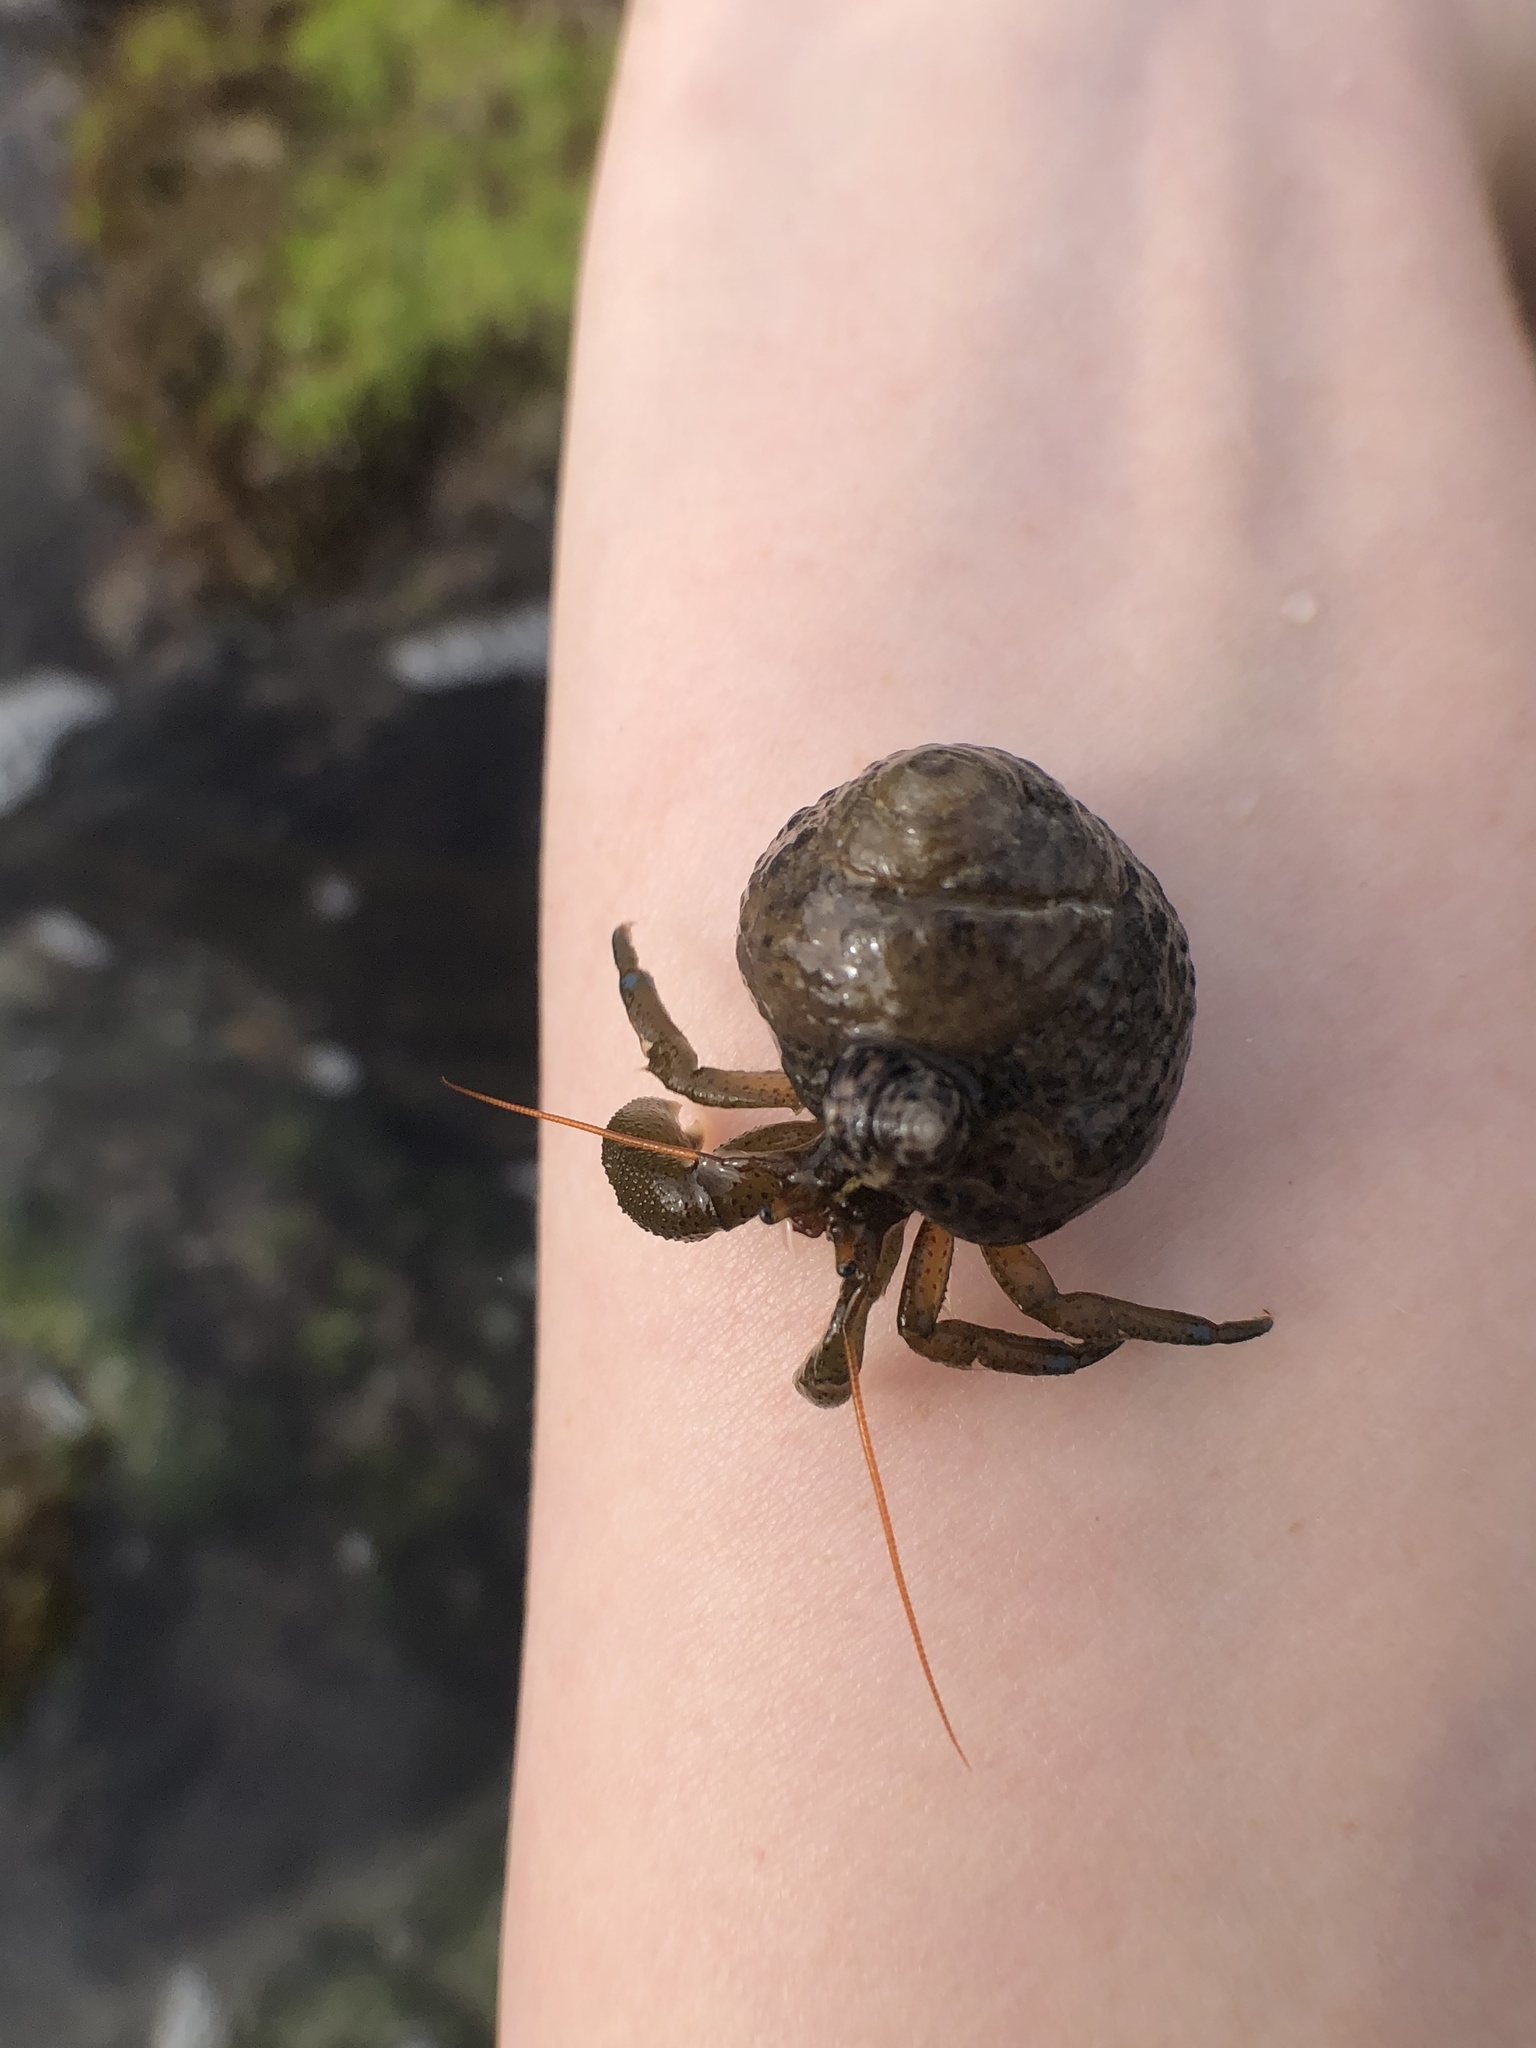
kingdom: Animalia
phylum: Arthropoda
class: Malacostraca
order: Decapoda
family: Paguridae
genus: Pagurus
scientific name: Pagurus samuelis
